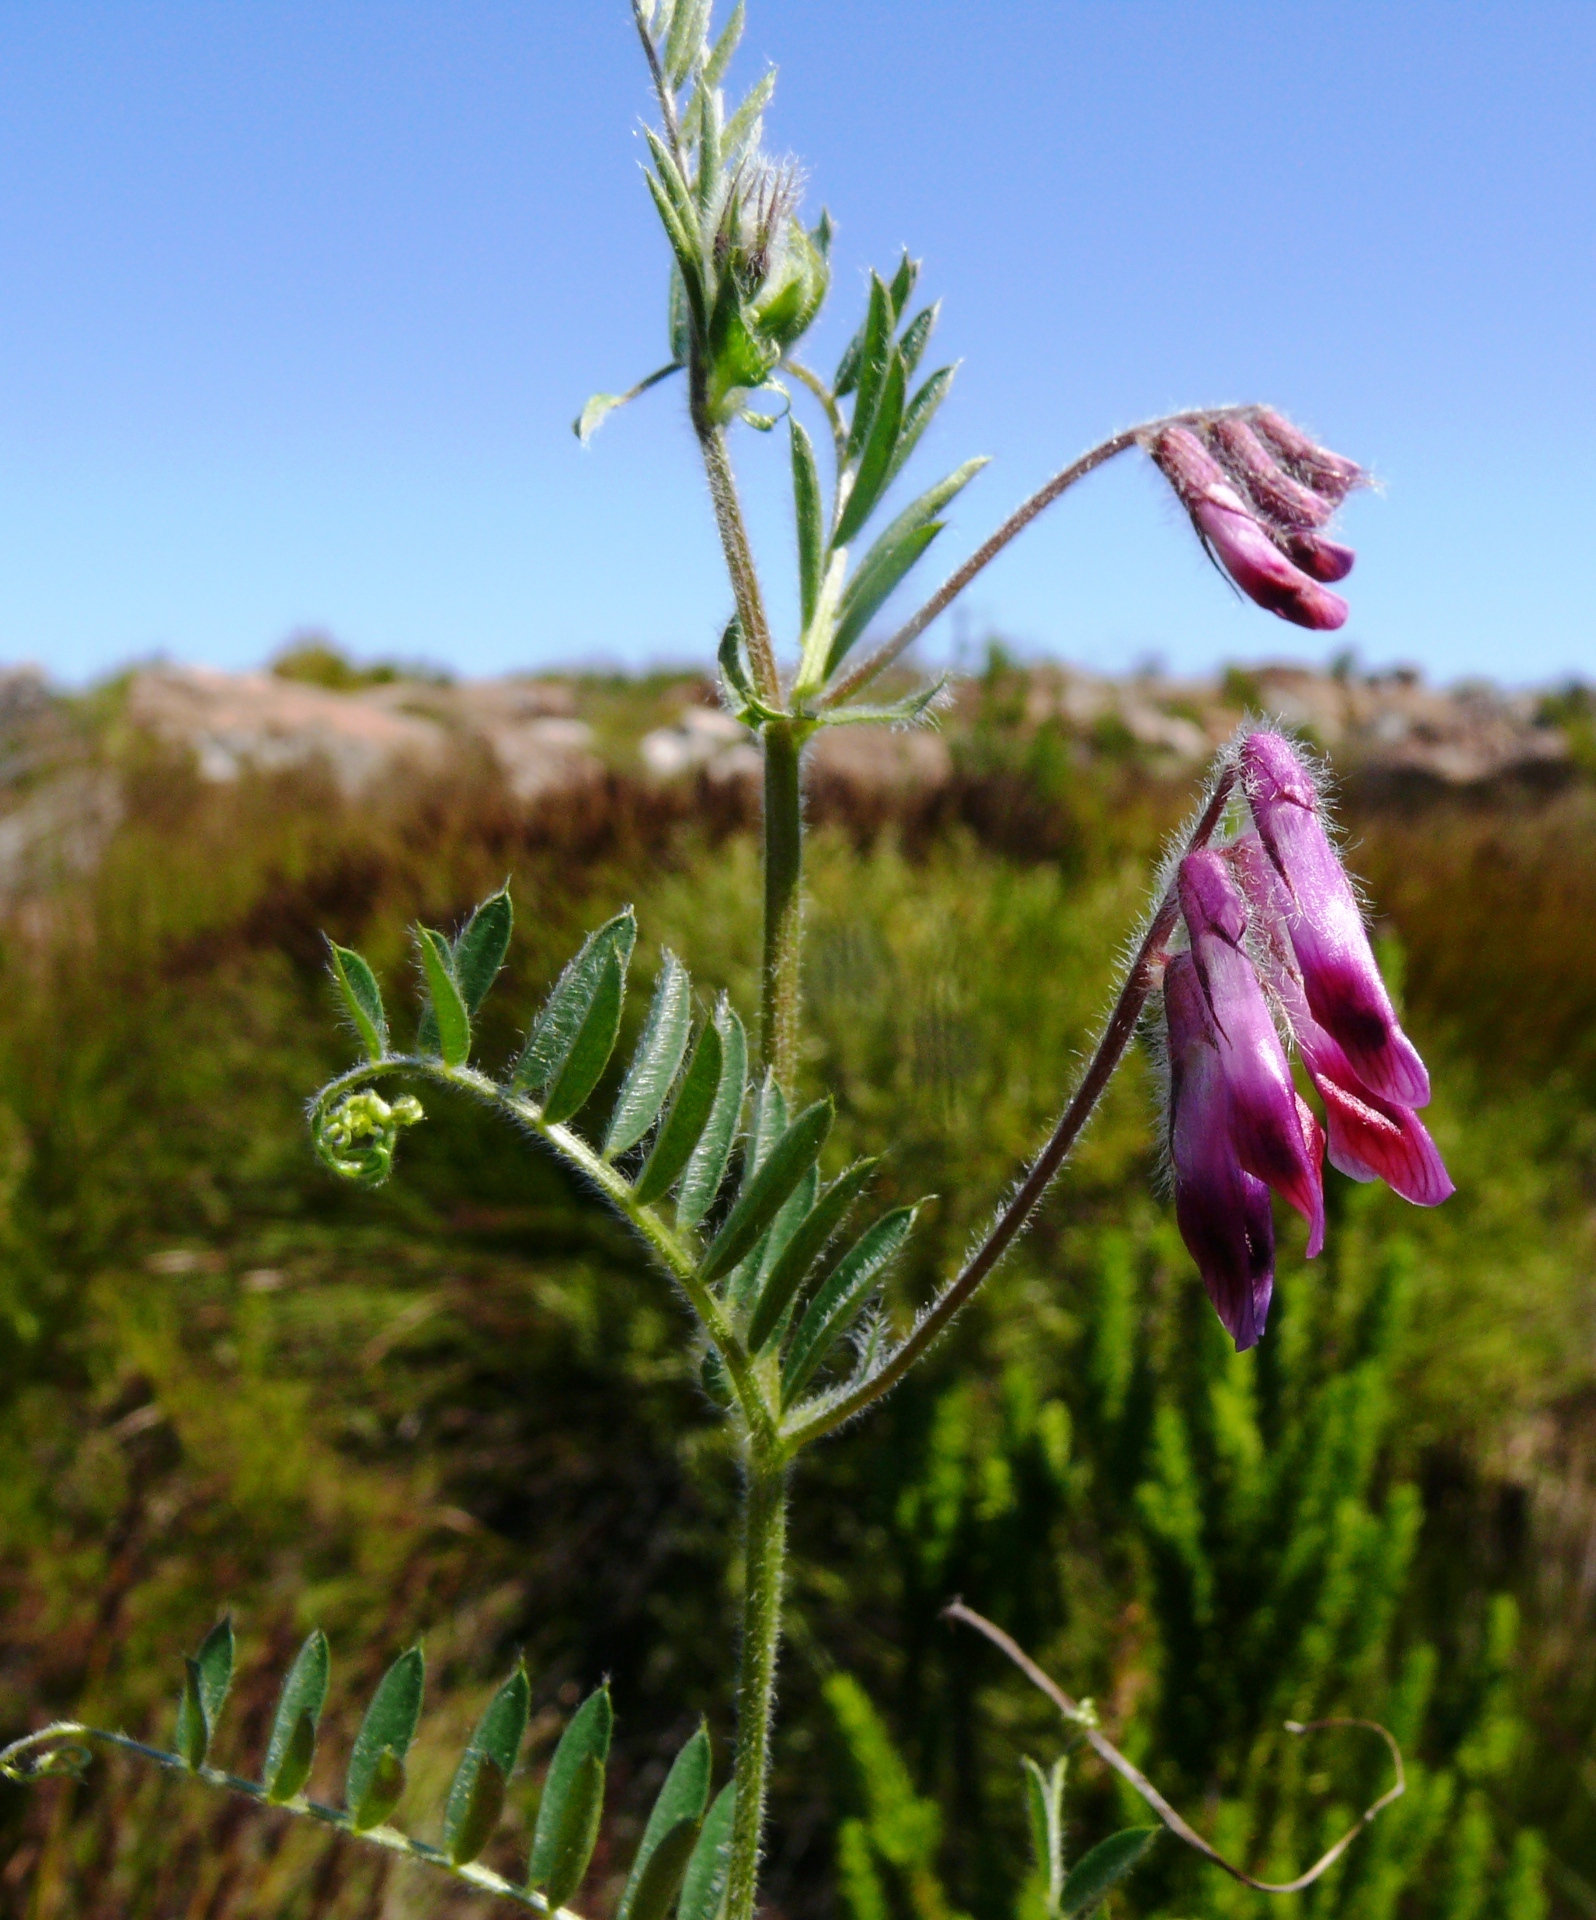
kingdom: Plantae
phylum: Tracheophyta
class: Magnoliopsida
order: Fabales
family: Fabaceae
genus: Vicia
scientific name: Vicia benghalensis
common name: Purple vetch
